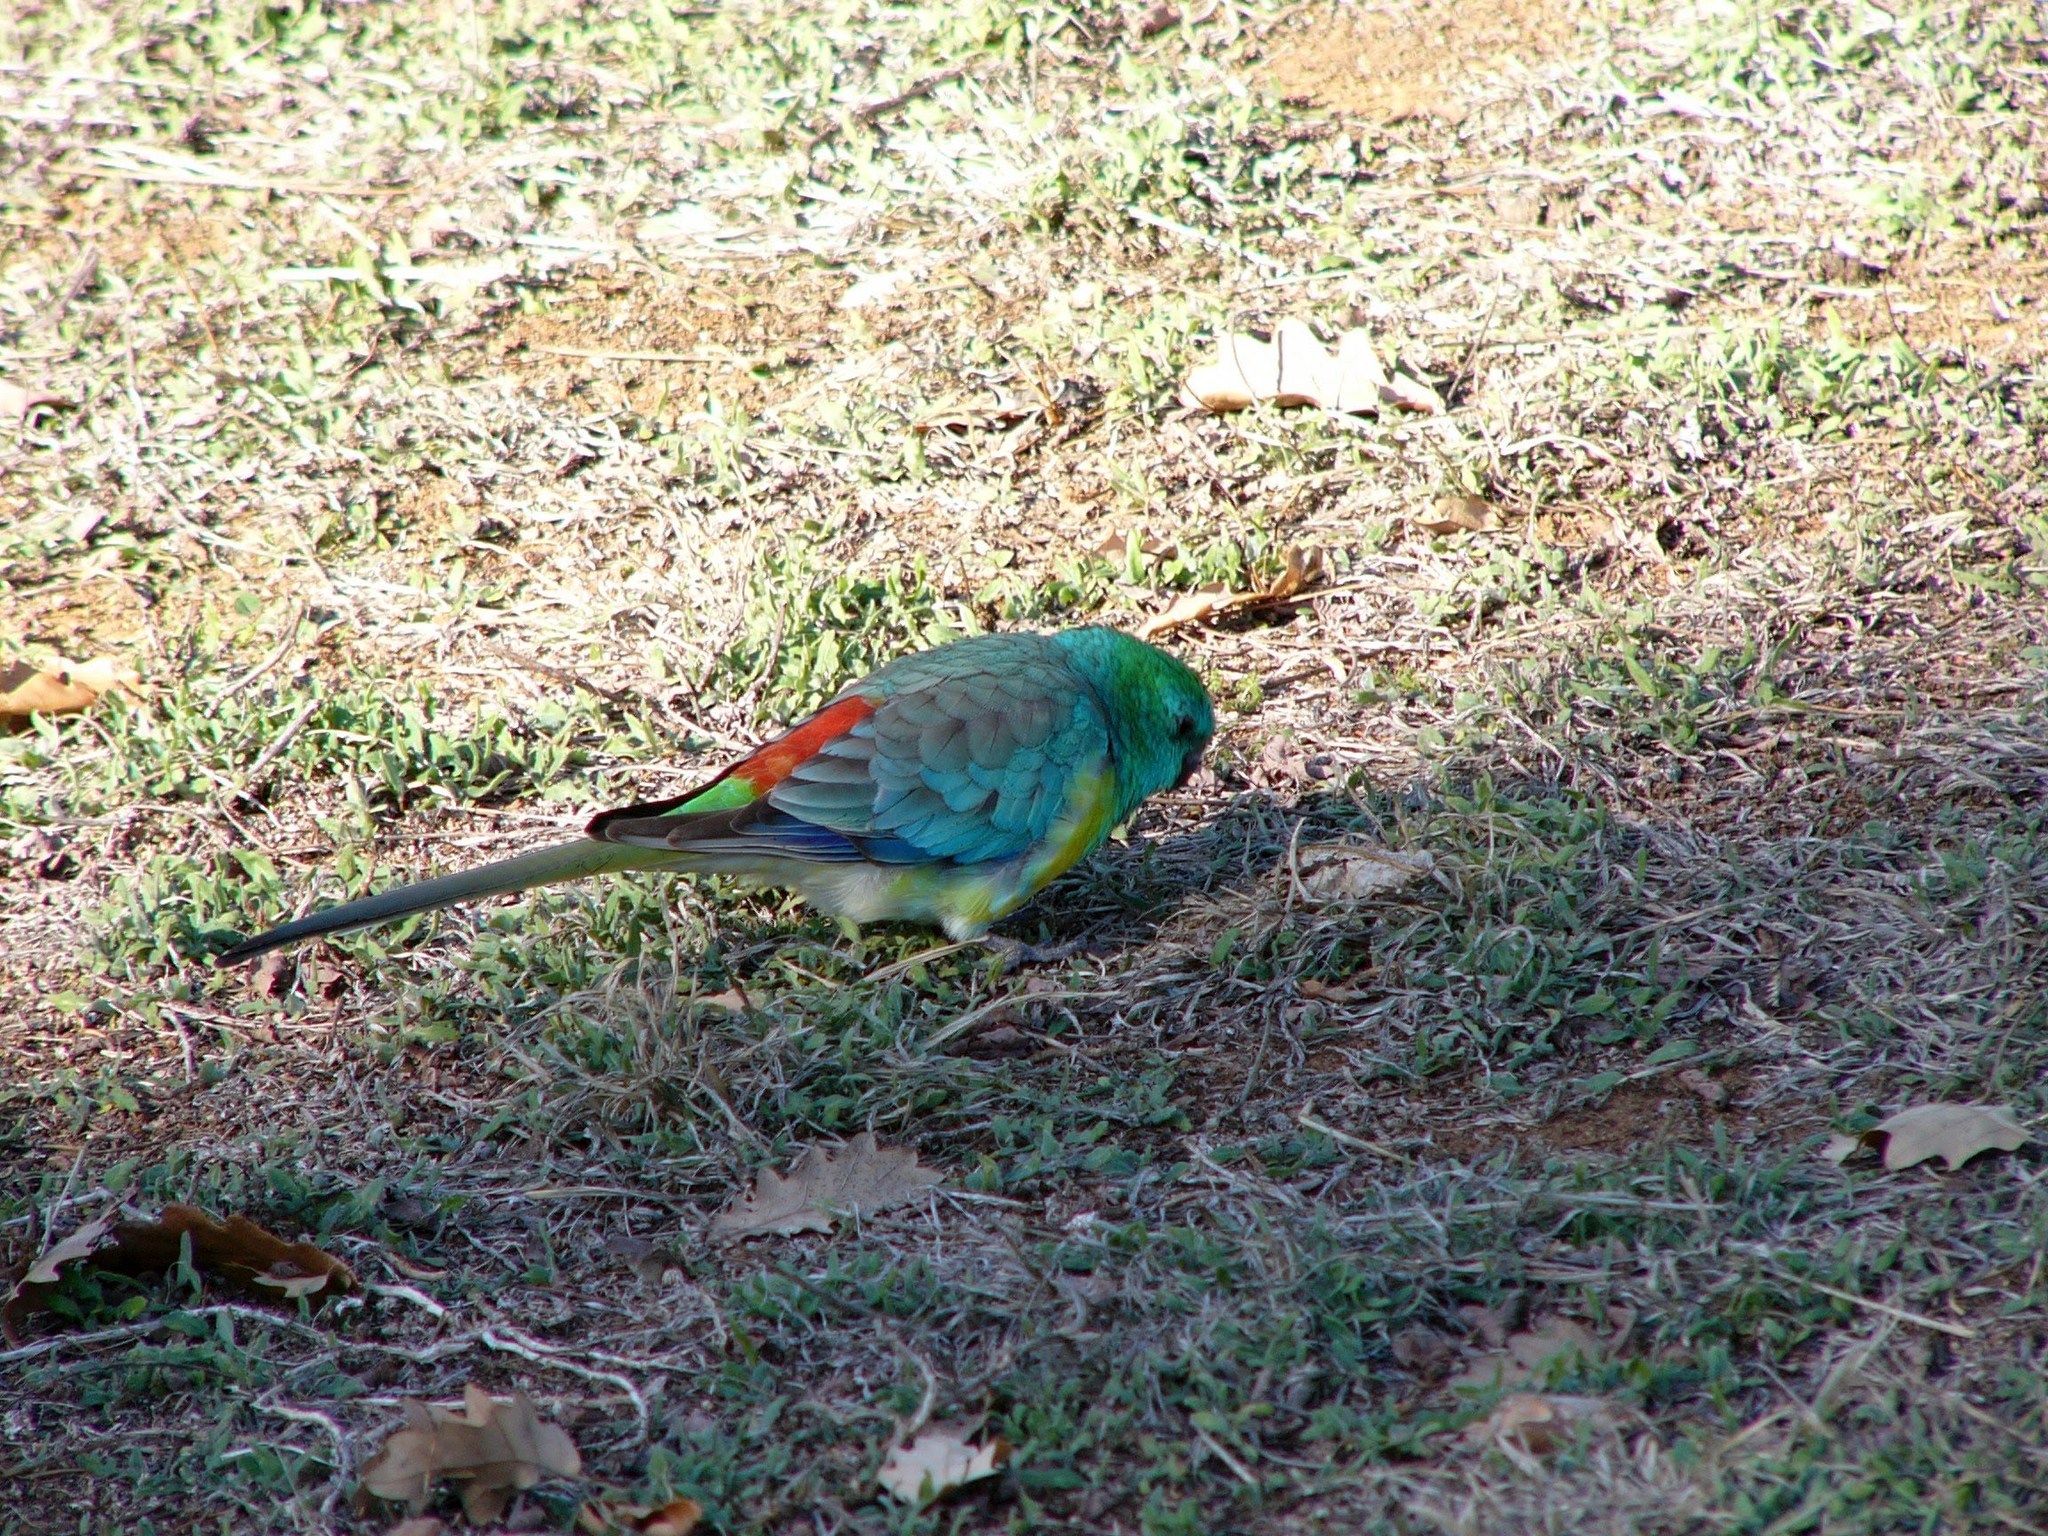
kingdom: Animalia
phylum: Chordata
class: Aves
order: Psittaciformes
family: Psittacidae
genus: Psephotus
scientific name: Psephotus haematonotus
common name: Red-rumped parrot
